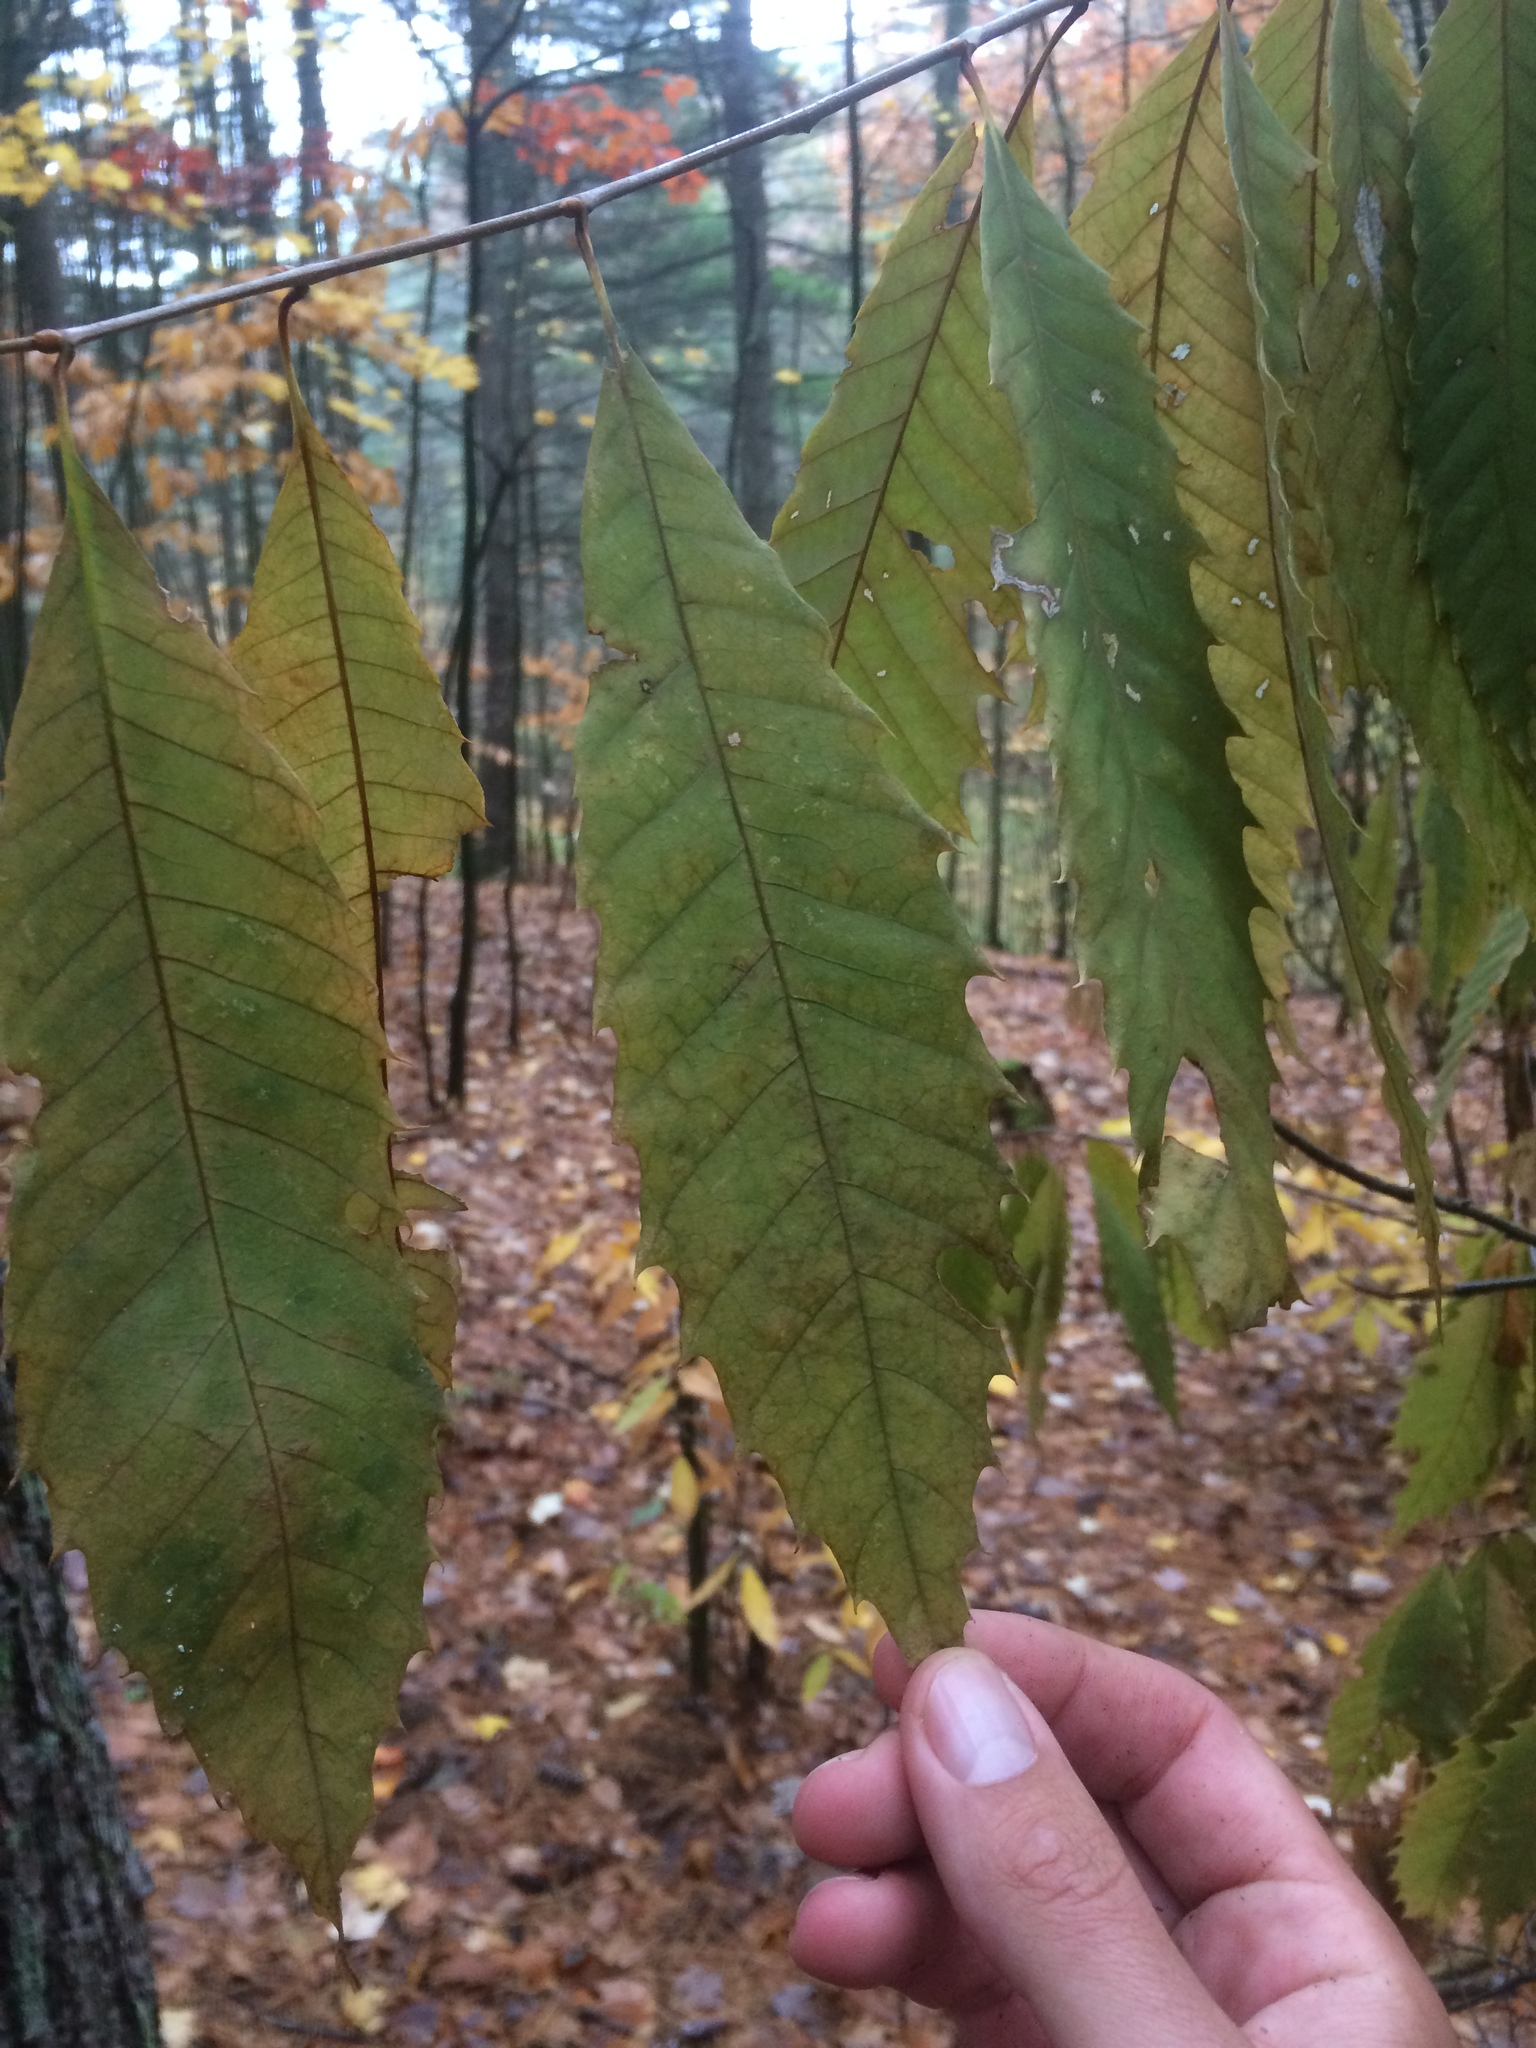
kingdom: Plantae
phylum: Tracheophyta
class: Magnoliopsida
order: Fagales
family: Fagaceae
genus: Castanea
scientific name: Castanea dentata
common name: American chestnut
